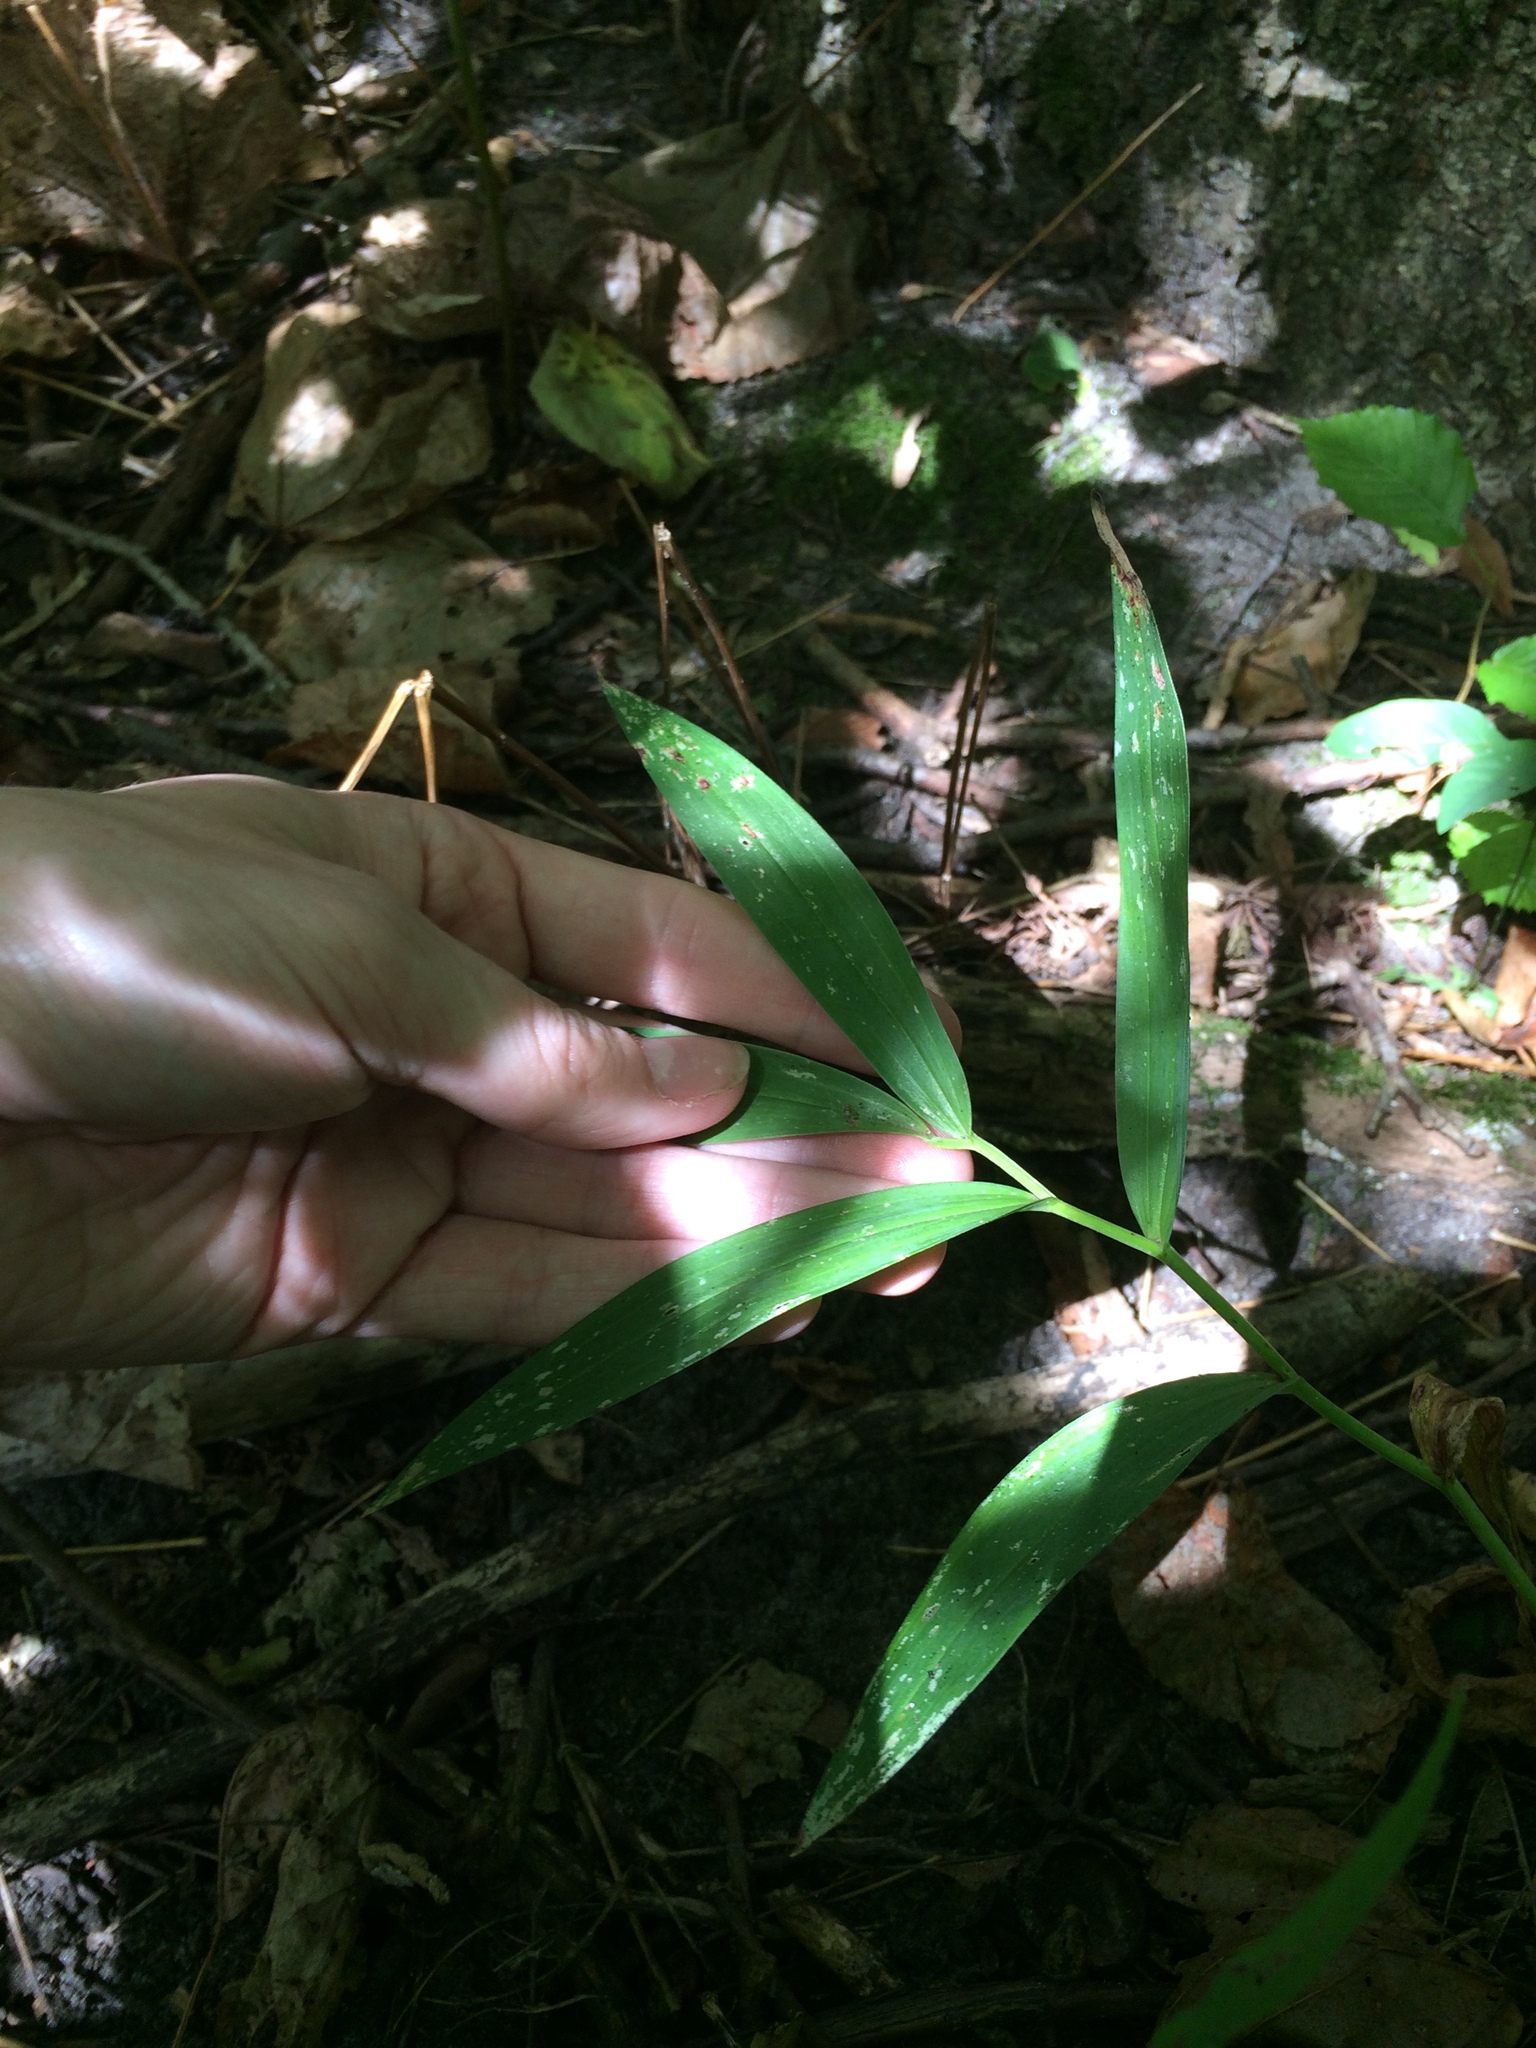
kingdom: Plantae
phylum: Tracheophyta
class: Liliopsida
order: Asparagales
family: Asparagaceae
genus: Maianthemum
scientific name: Maianthemum stellatum
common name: Little false solomon's seal
